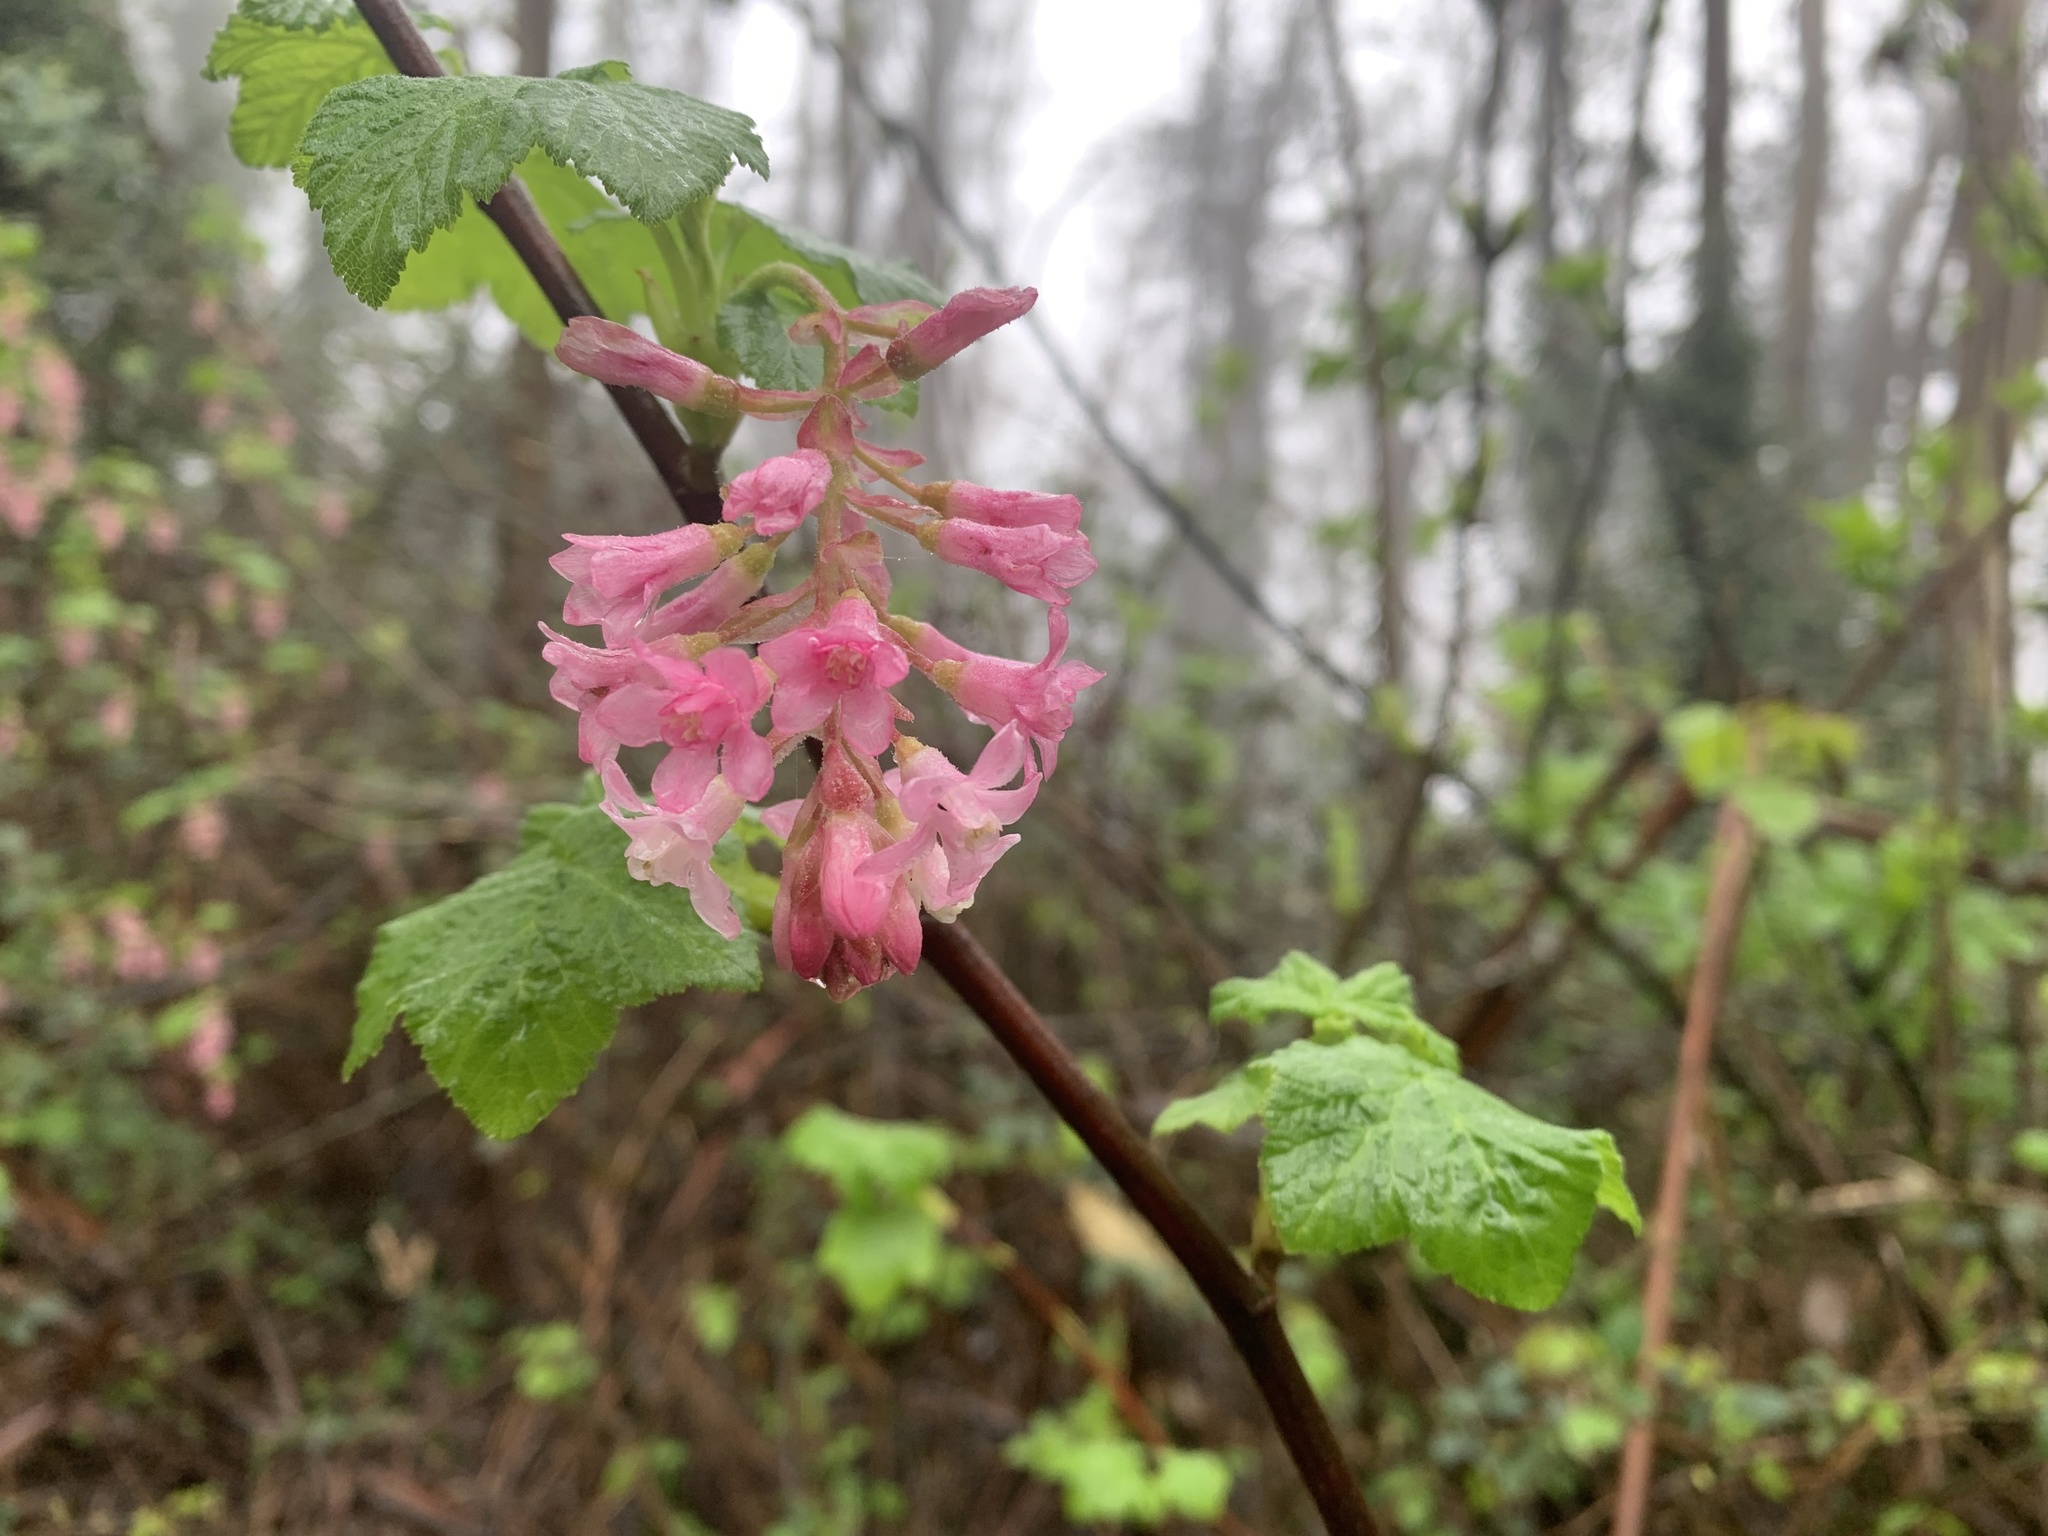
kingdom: Plantae
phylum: Tracheophyta
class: Magnoliopsida
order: Saxifragales
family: Grossulariaceae
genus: Ribes
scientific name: Ribes sanguineum
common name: Flowering currant
